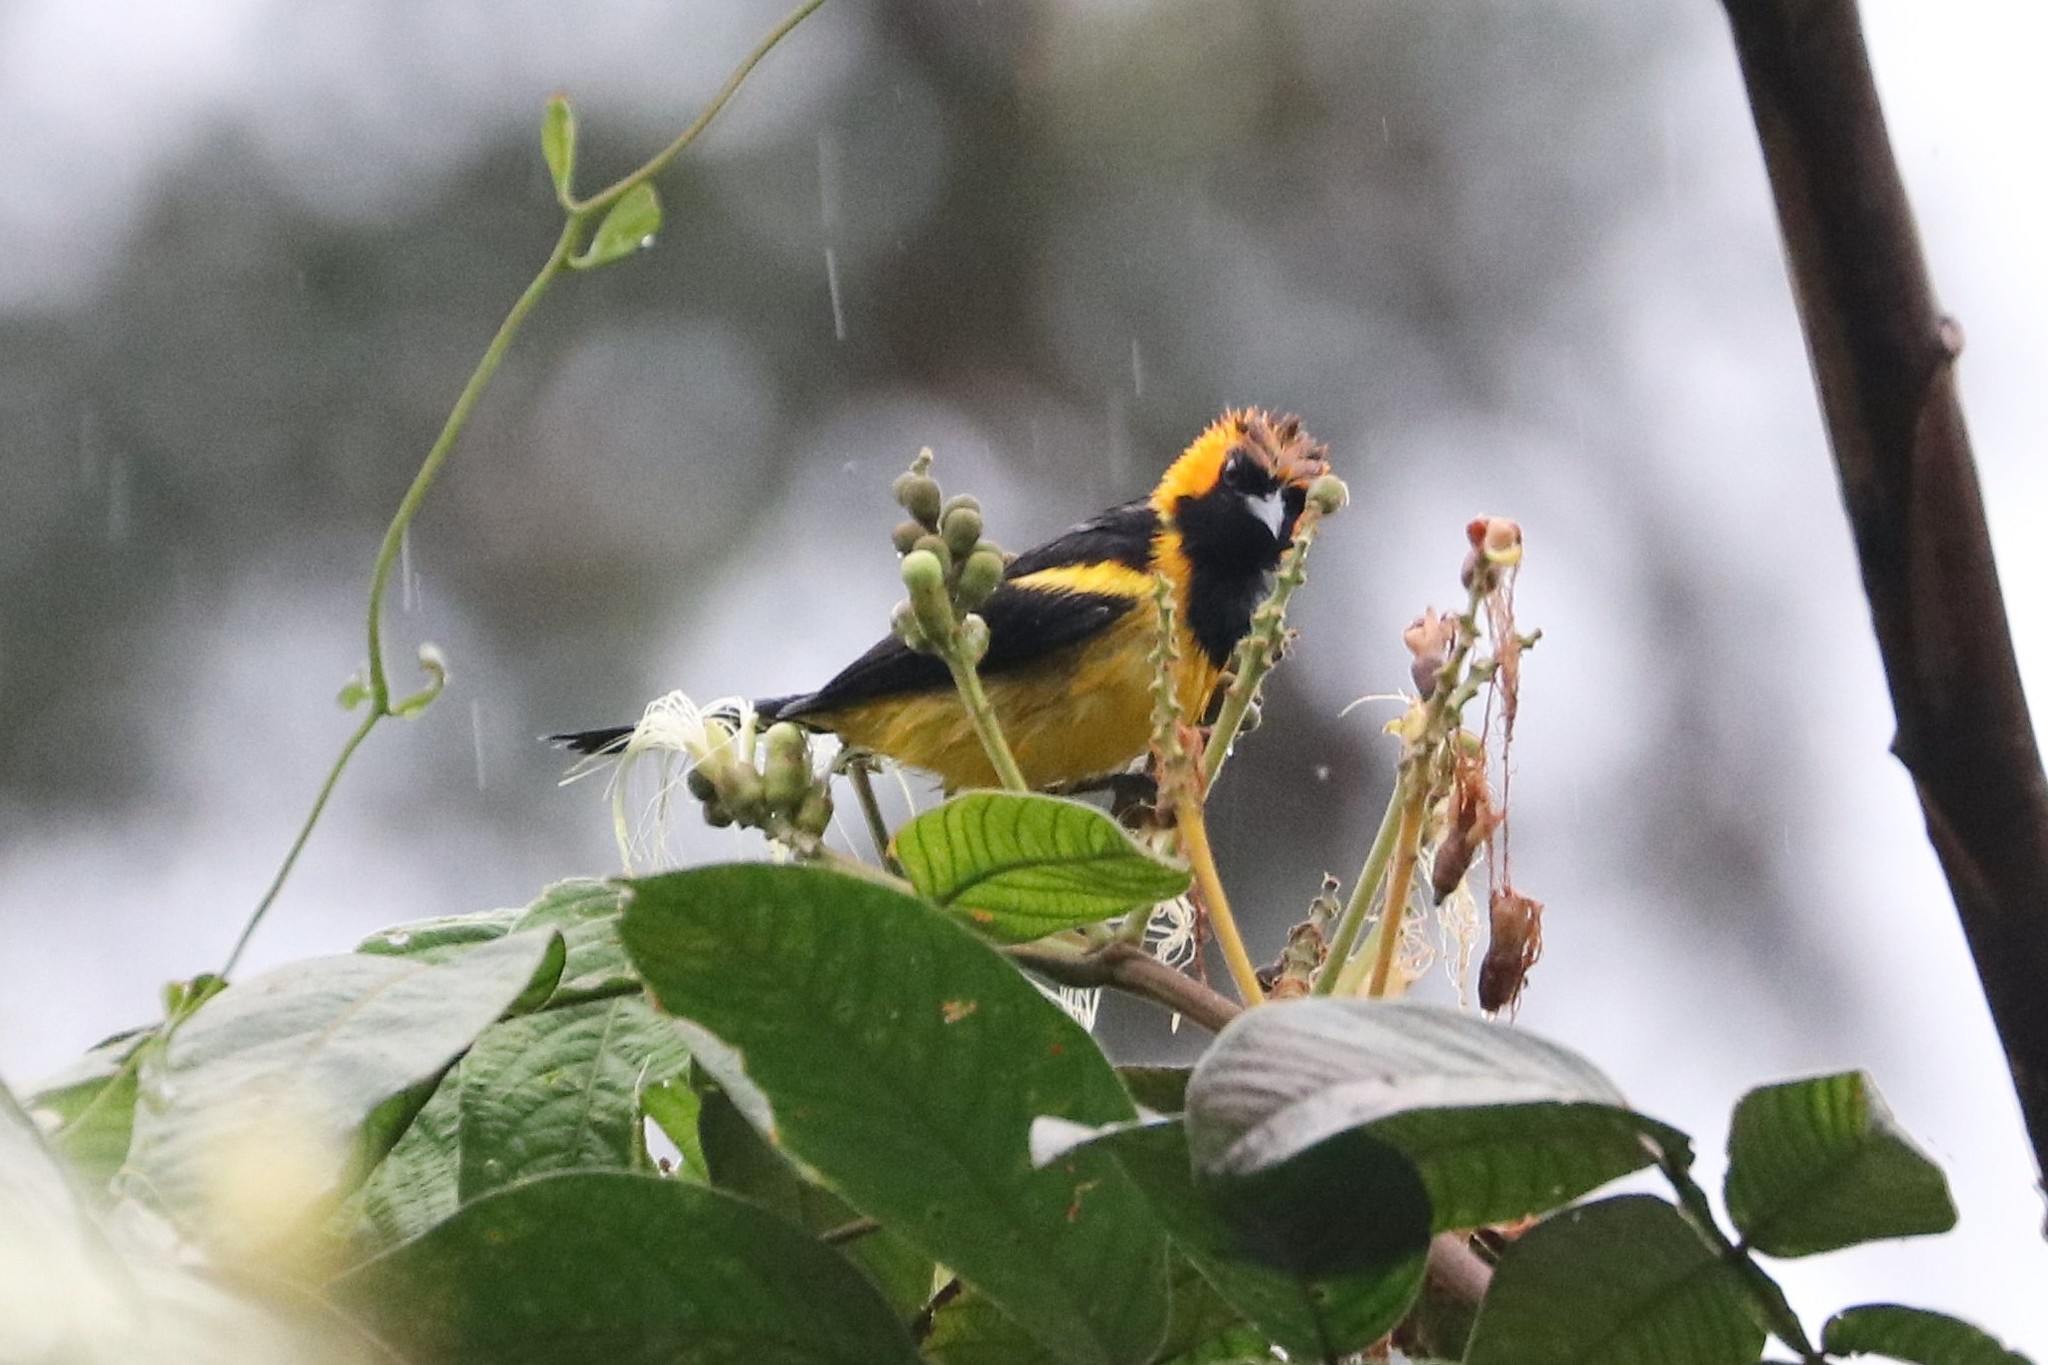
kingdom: Animalia
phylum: Chordata
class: Aves
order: Passeriformes
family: Icteridae
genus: Icterus
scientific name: Icterus auricapillus
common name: Orange-crowned oriole
